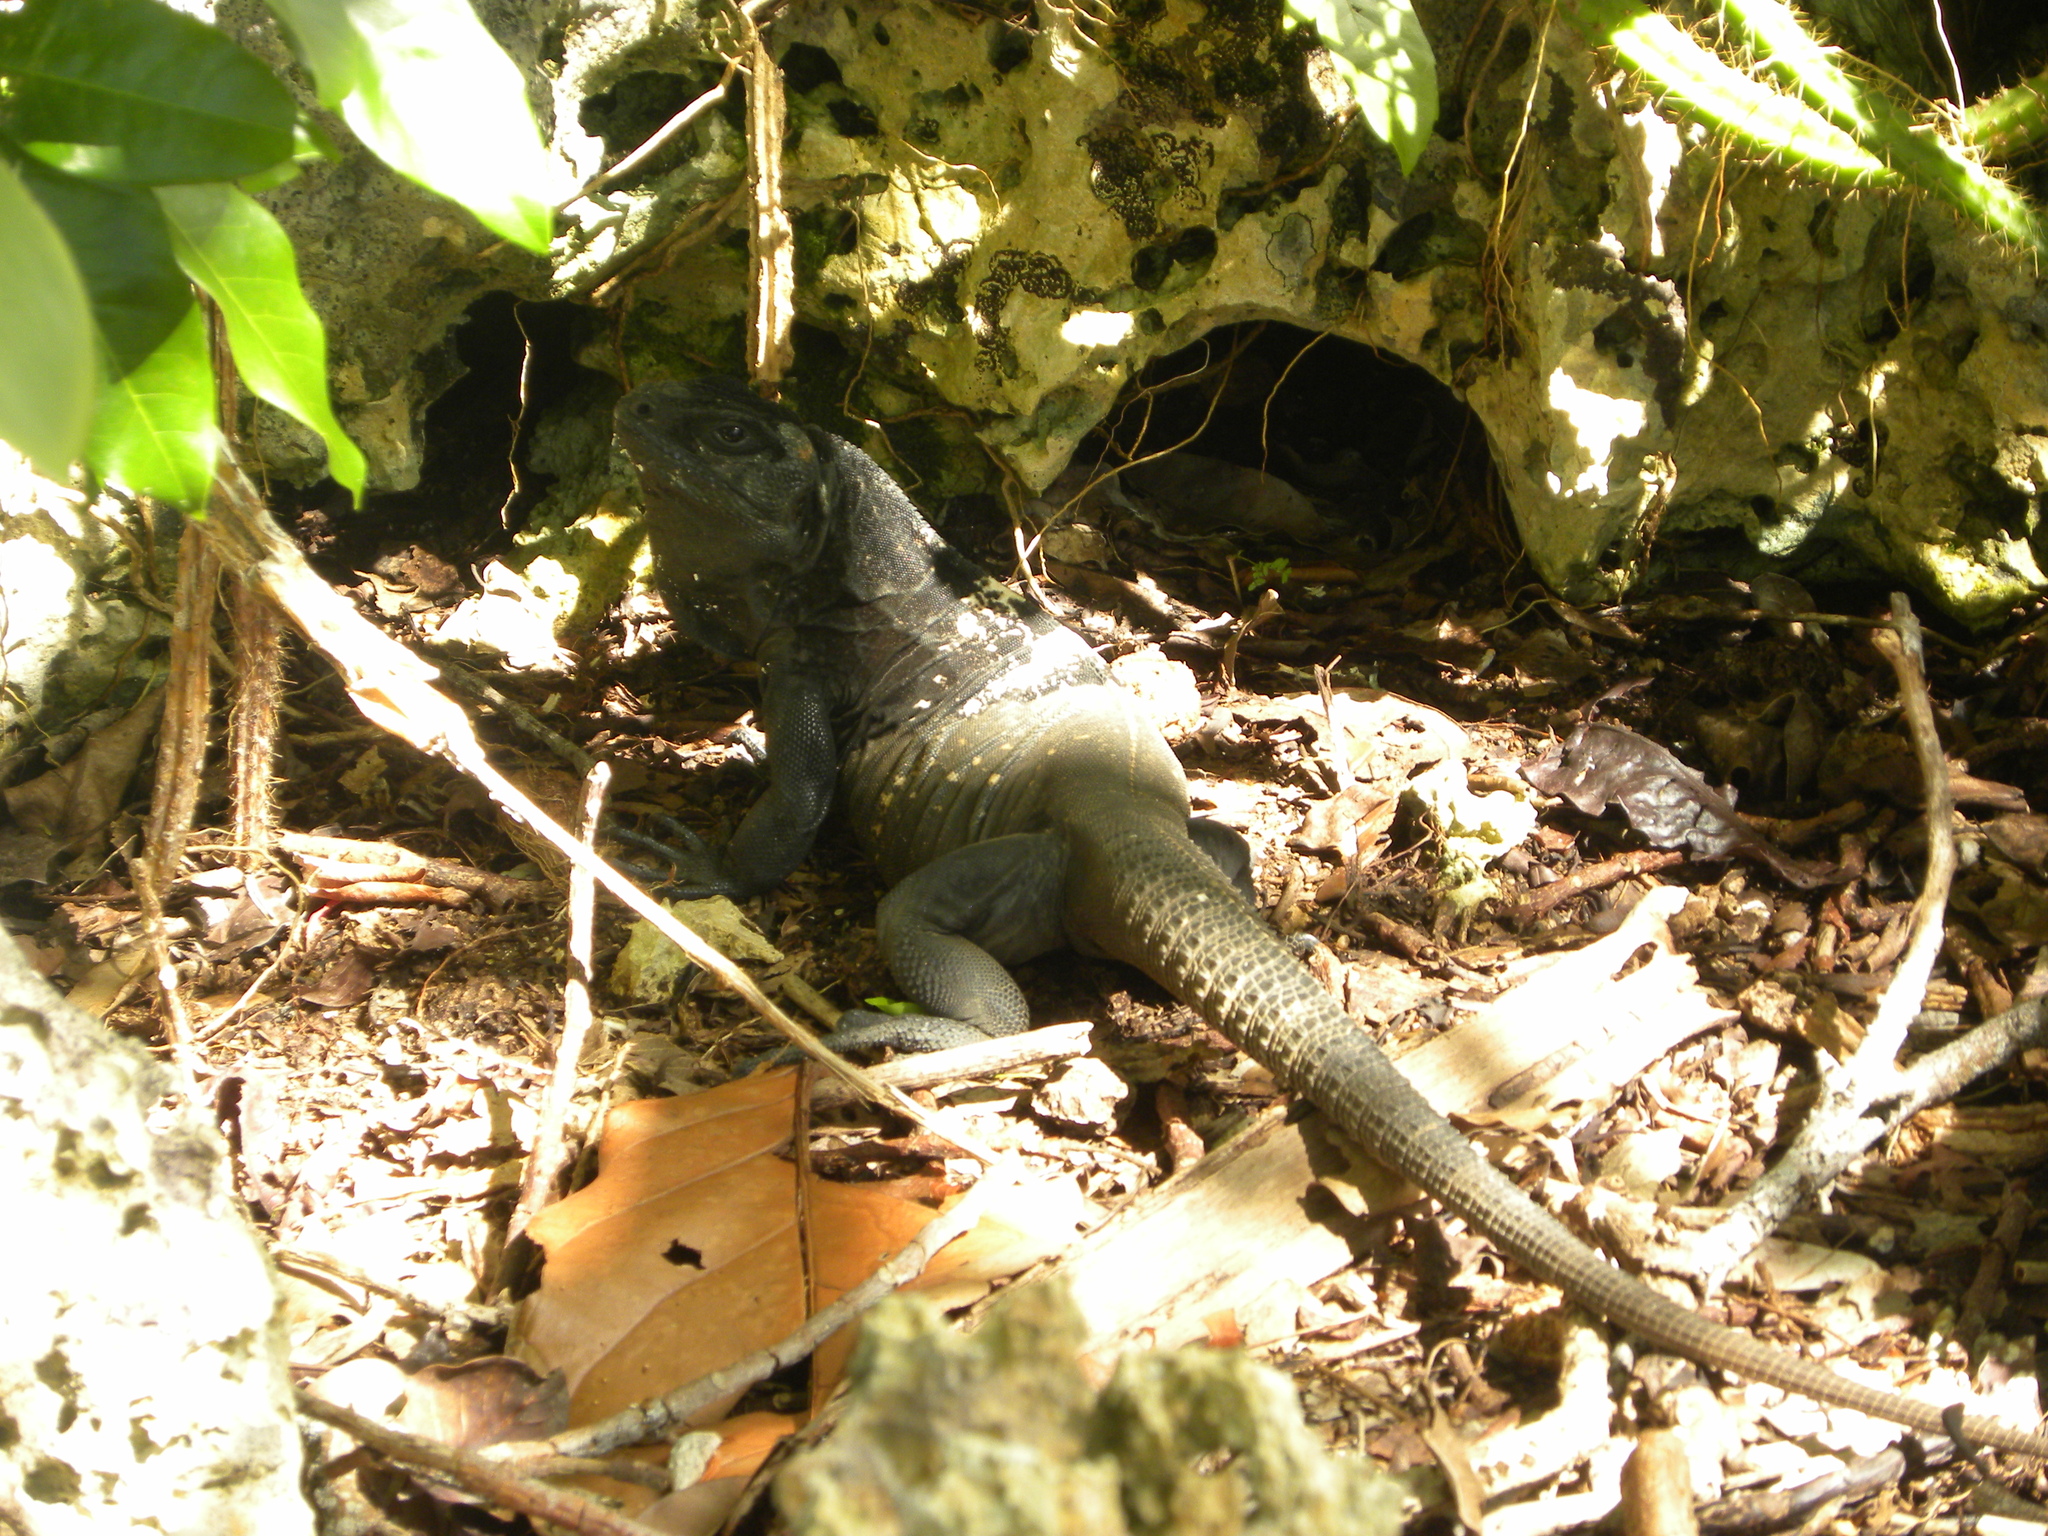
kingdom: Animalia
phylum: Chordata
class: Squamata
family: Iguanidae
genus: Ctenosaura
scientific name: Ctenosaura oedirhina
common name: Roatan spiny-tailed iguana
